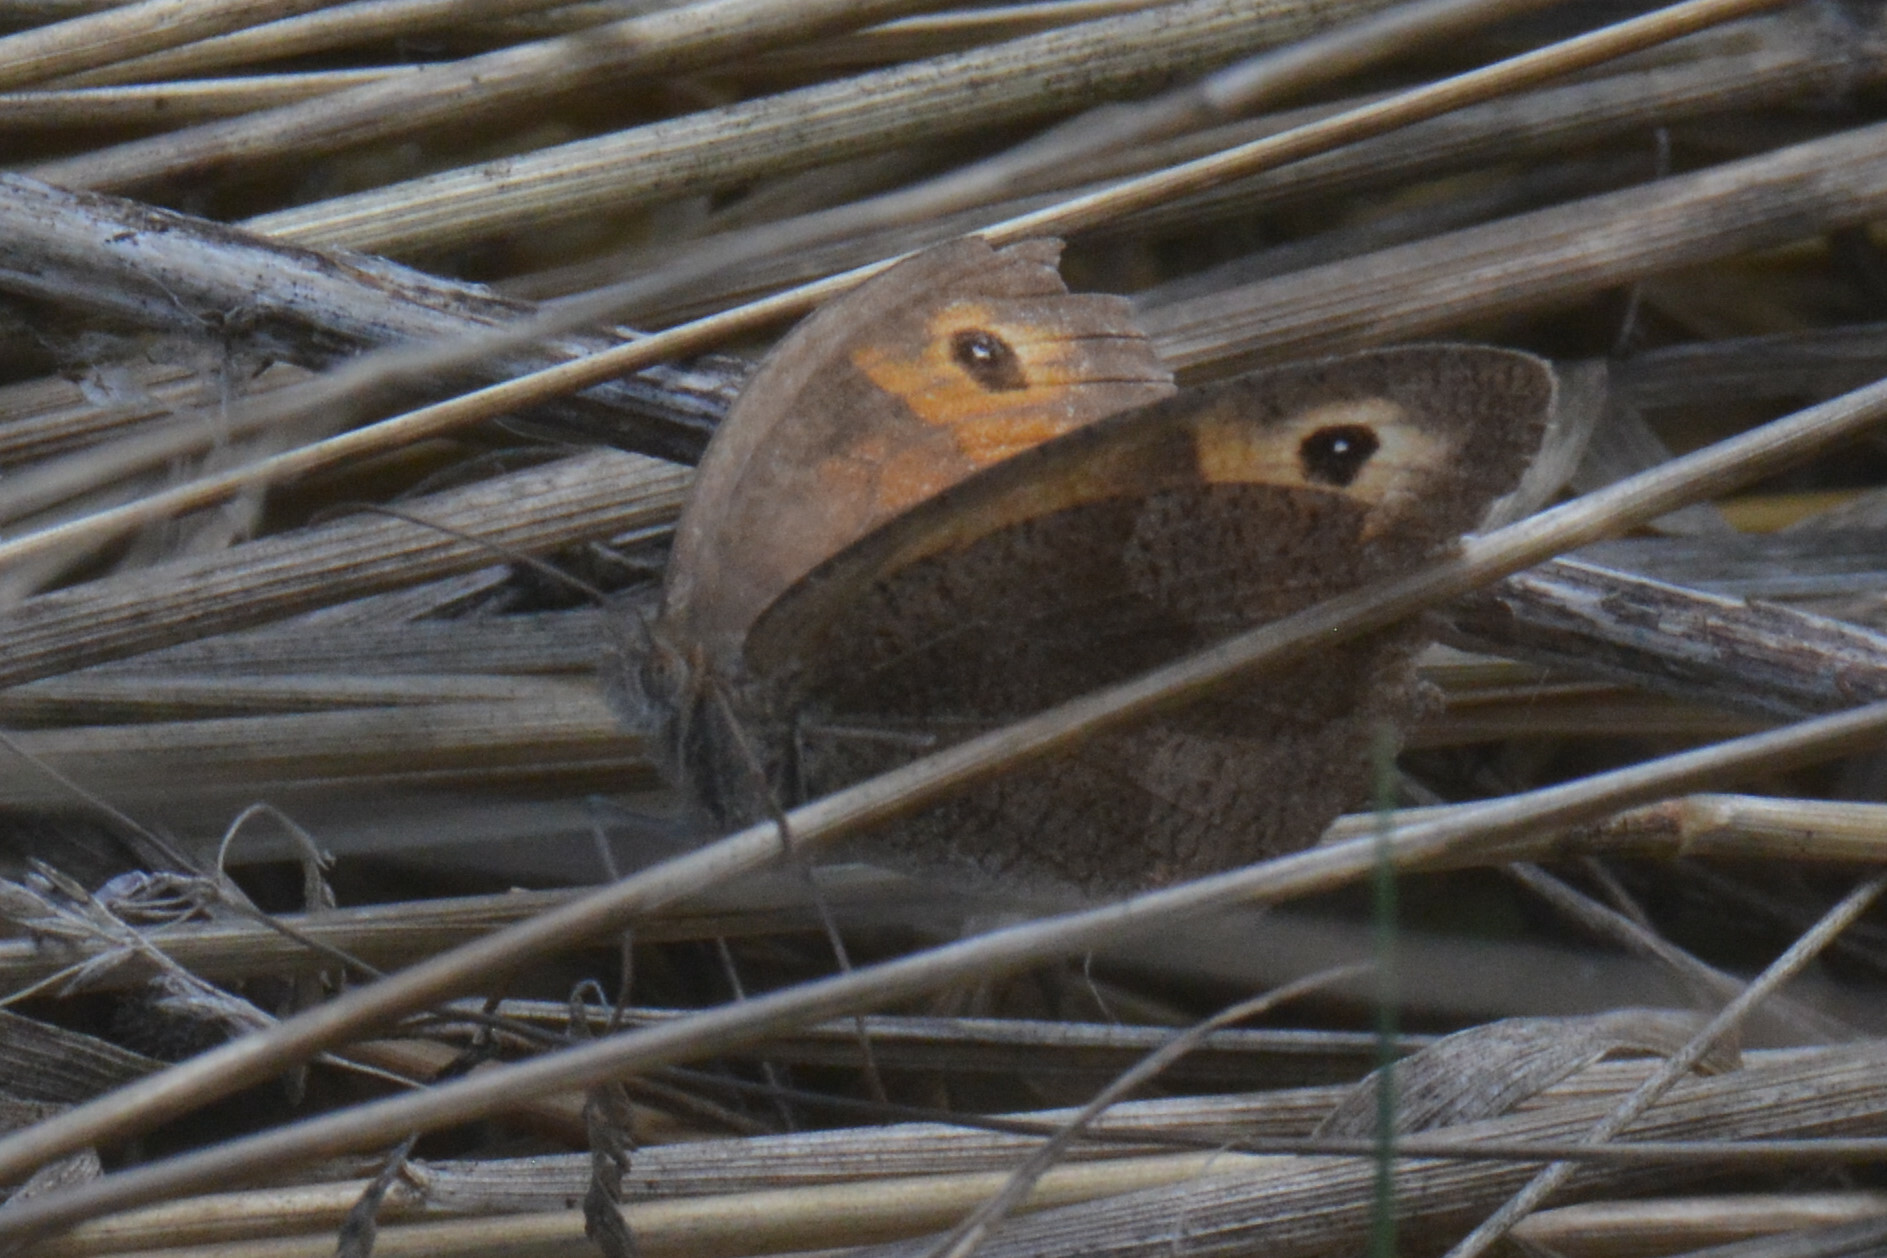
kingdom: Animalia
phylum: Arthropoda
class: Insecta
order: Lepidoptera
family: Nymphalidae
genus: Maniola
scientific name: Maniola jurtina
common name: Meadow brown
